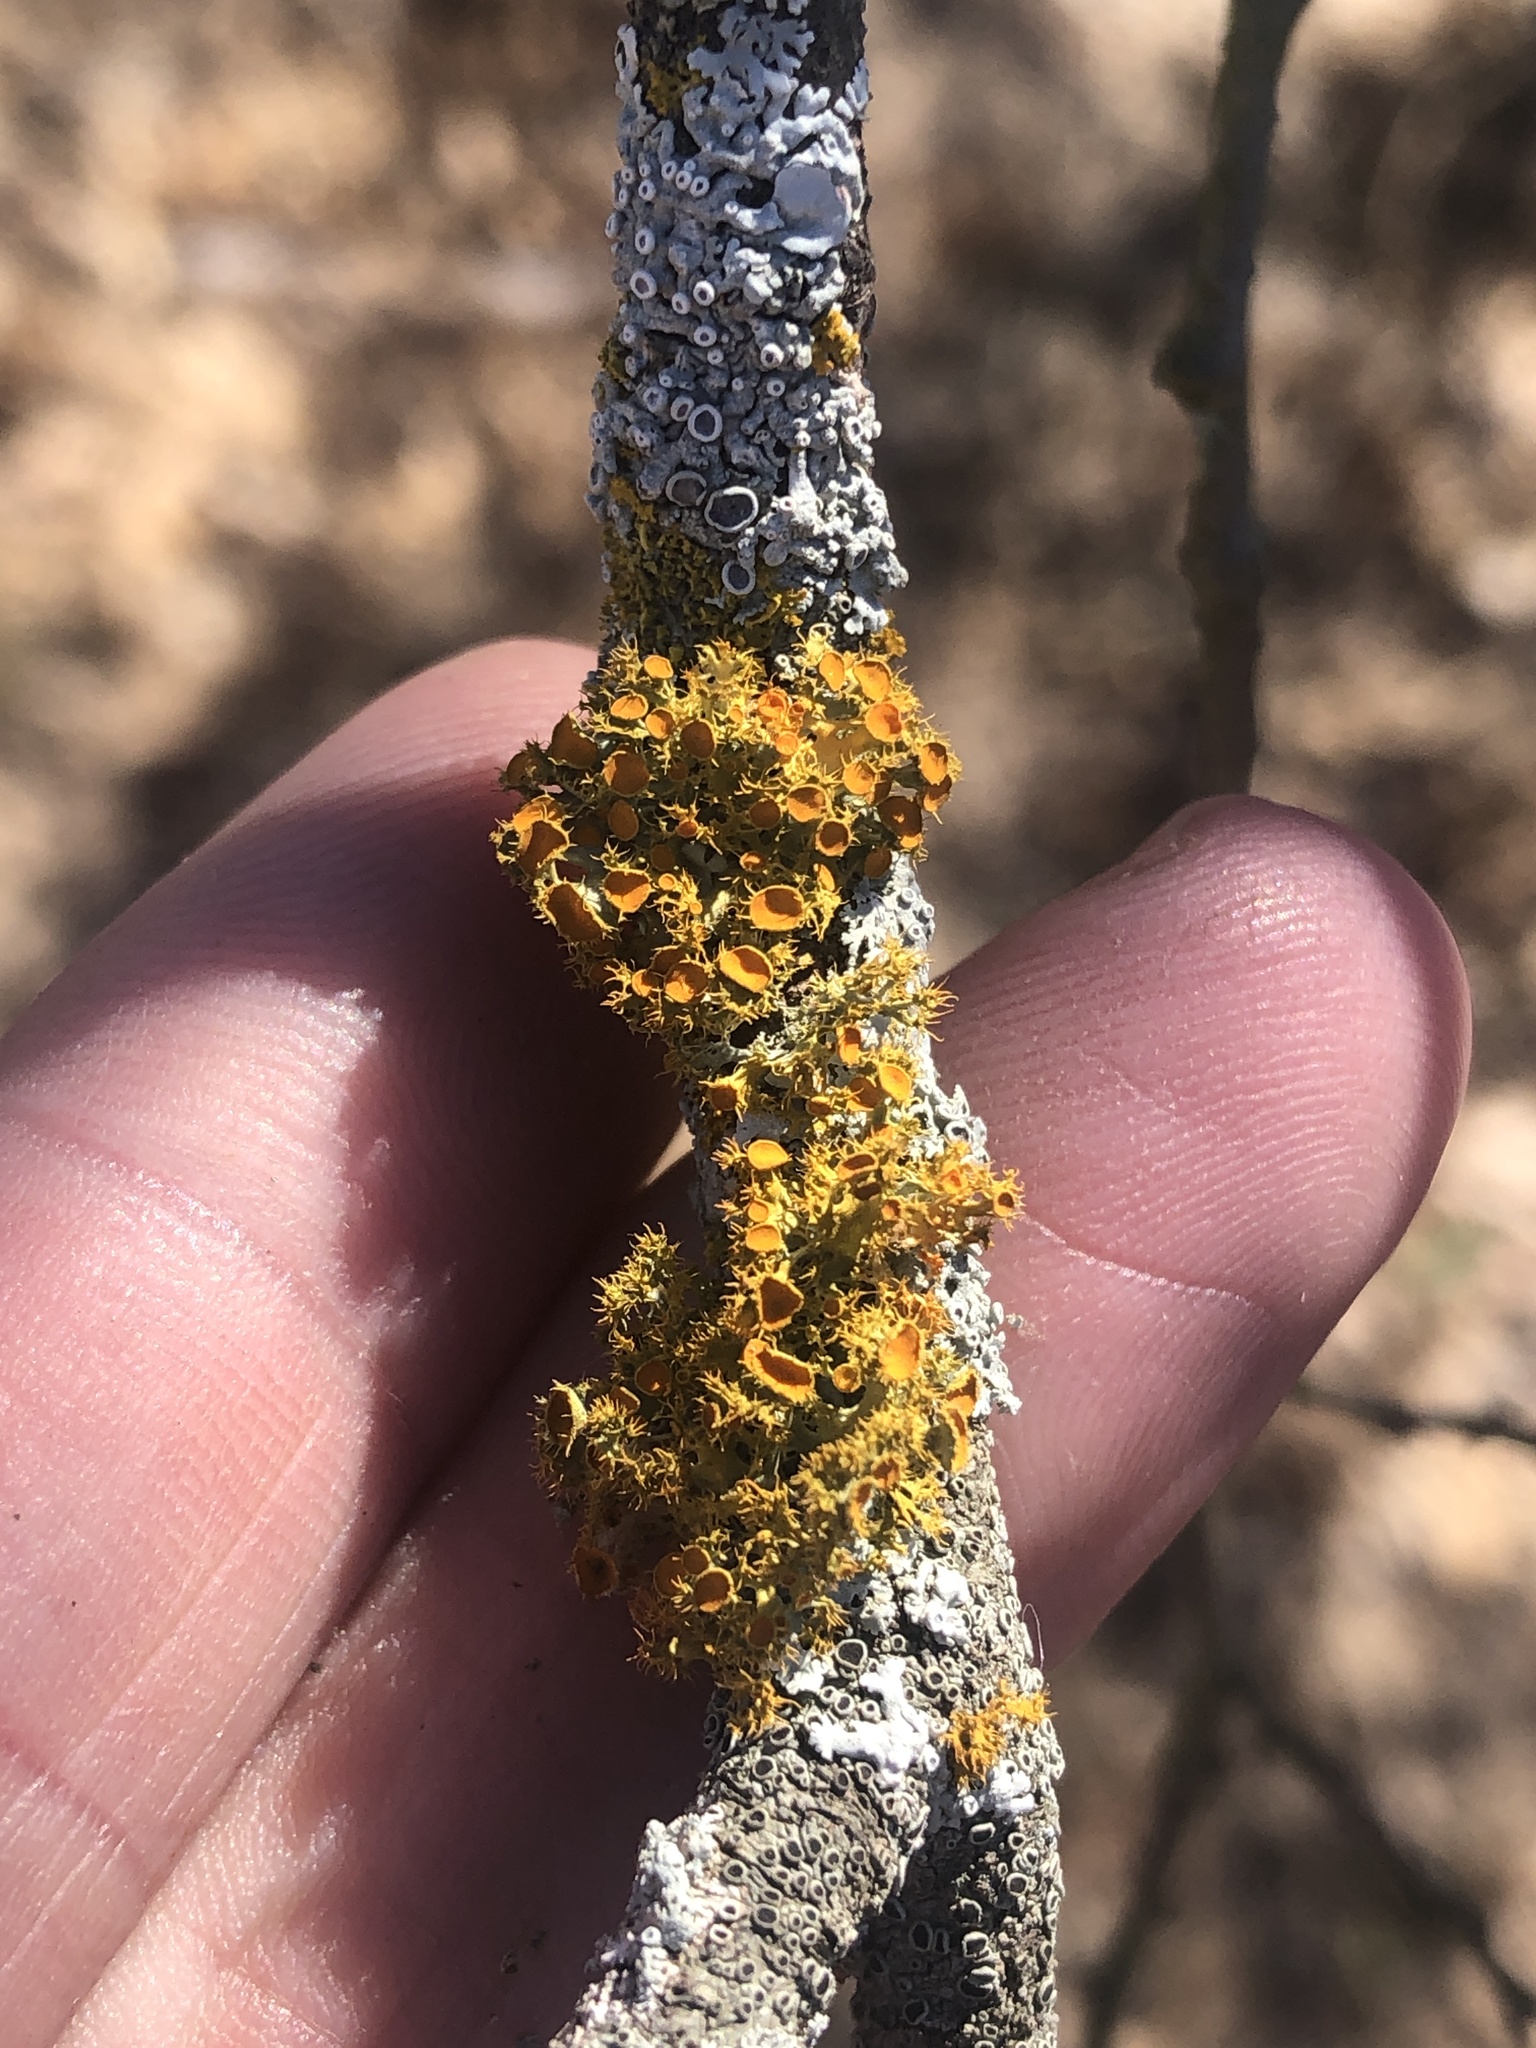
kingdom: Fungi
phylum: Ascomycota
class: Lecanoromycetes
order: Teloschistales
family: Teloschistaceae
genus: Niorma
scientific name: Niorma chrysophthalma
